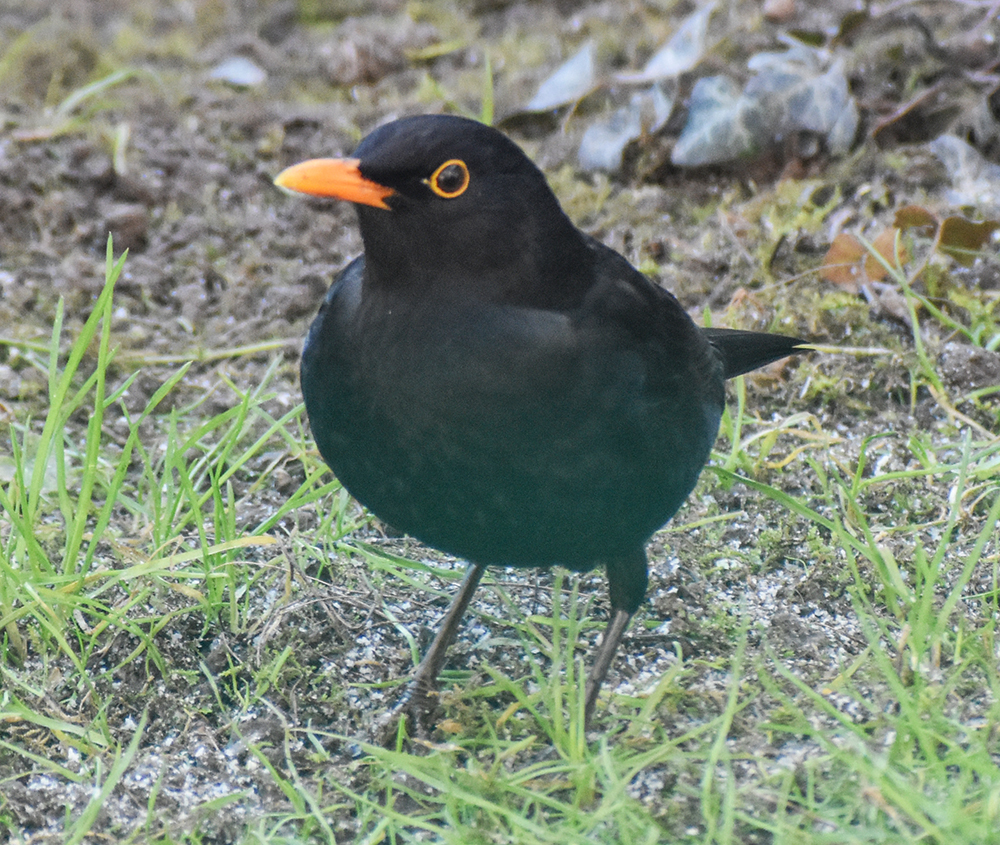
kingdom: Animalia
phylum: Chordata
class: Aves
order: Passeriformes
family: Turdidae
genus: Turdus
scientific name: Turdus merula
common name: Common blackbird
